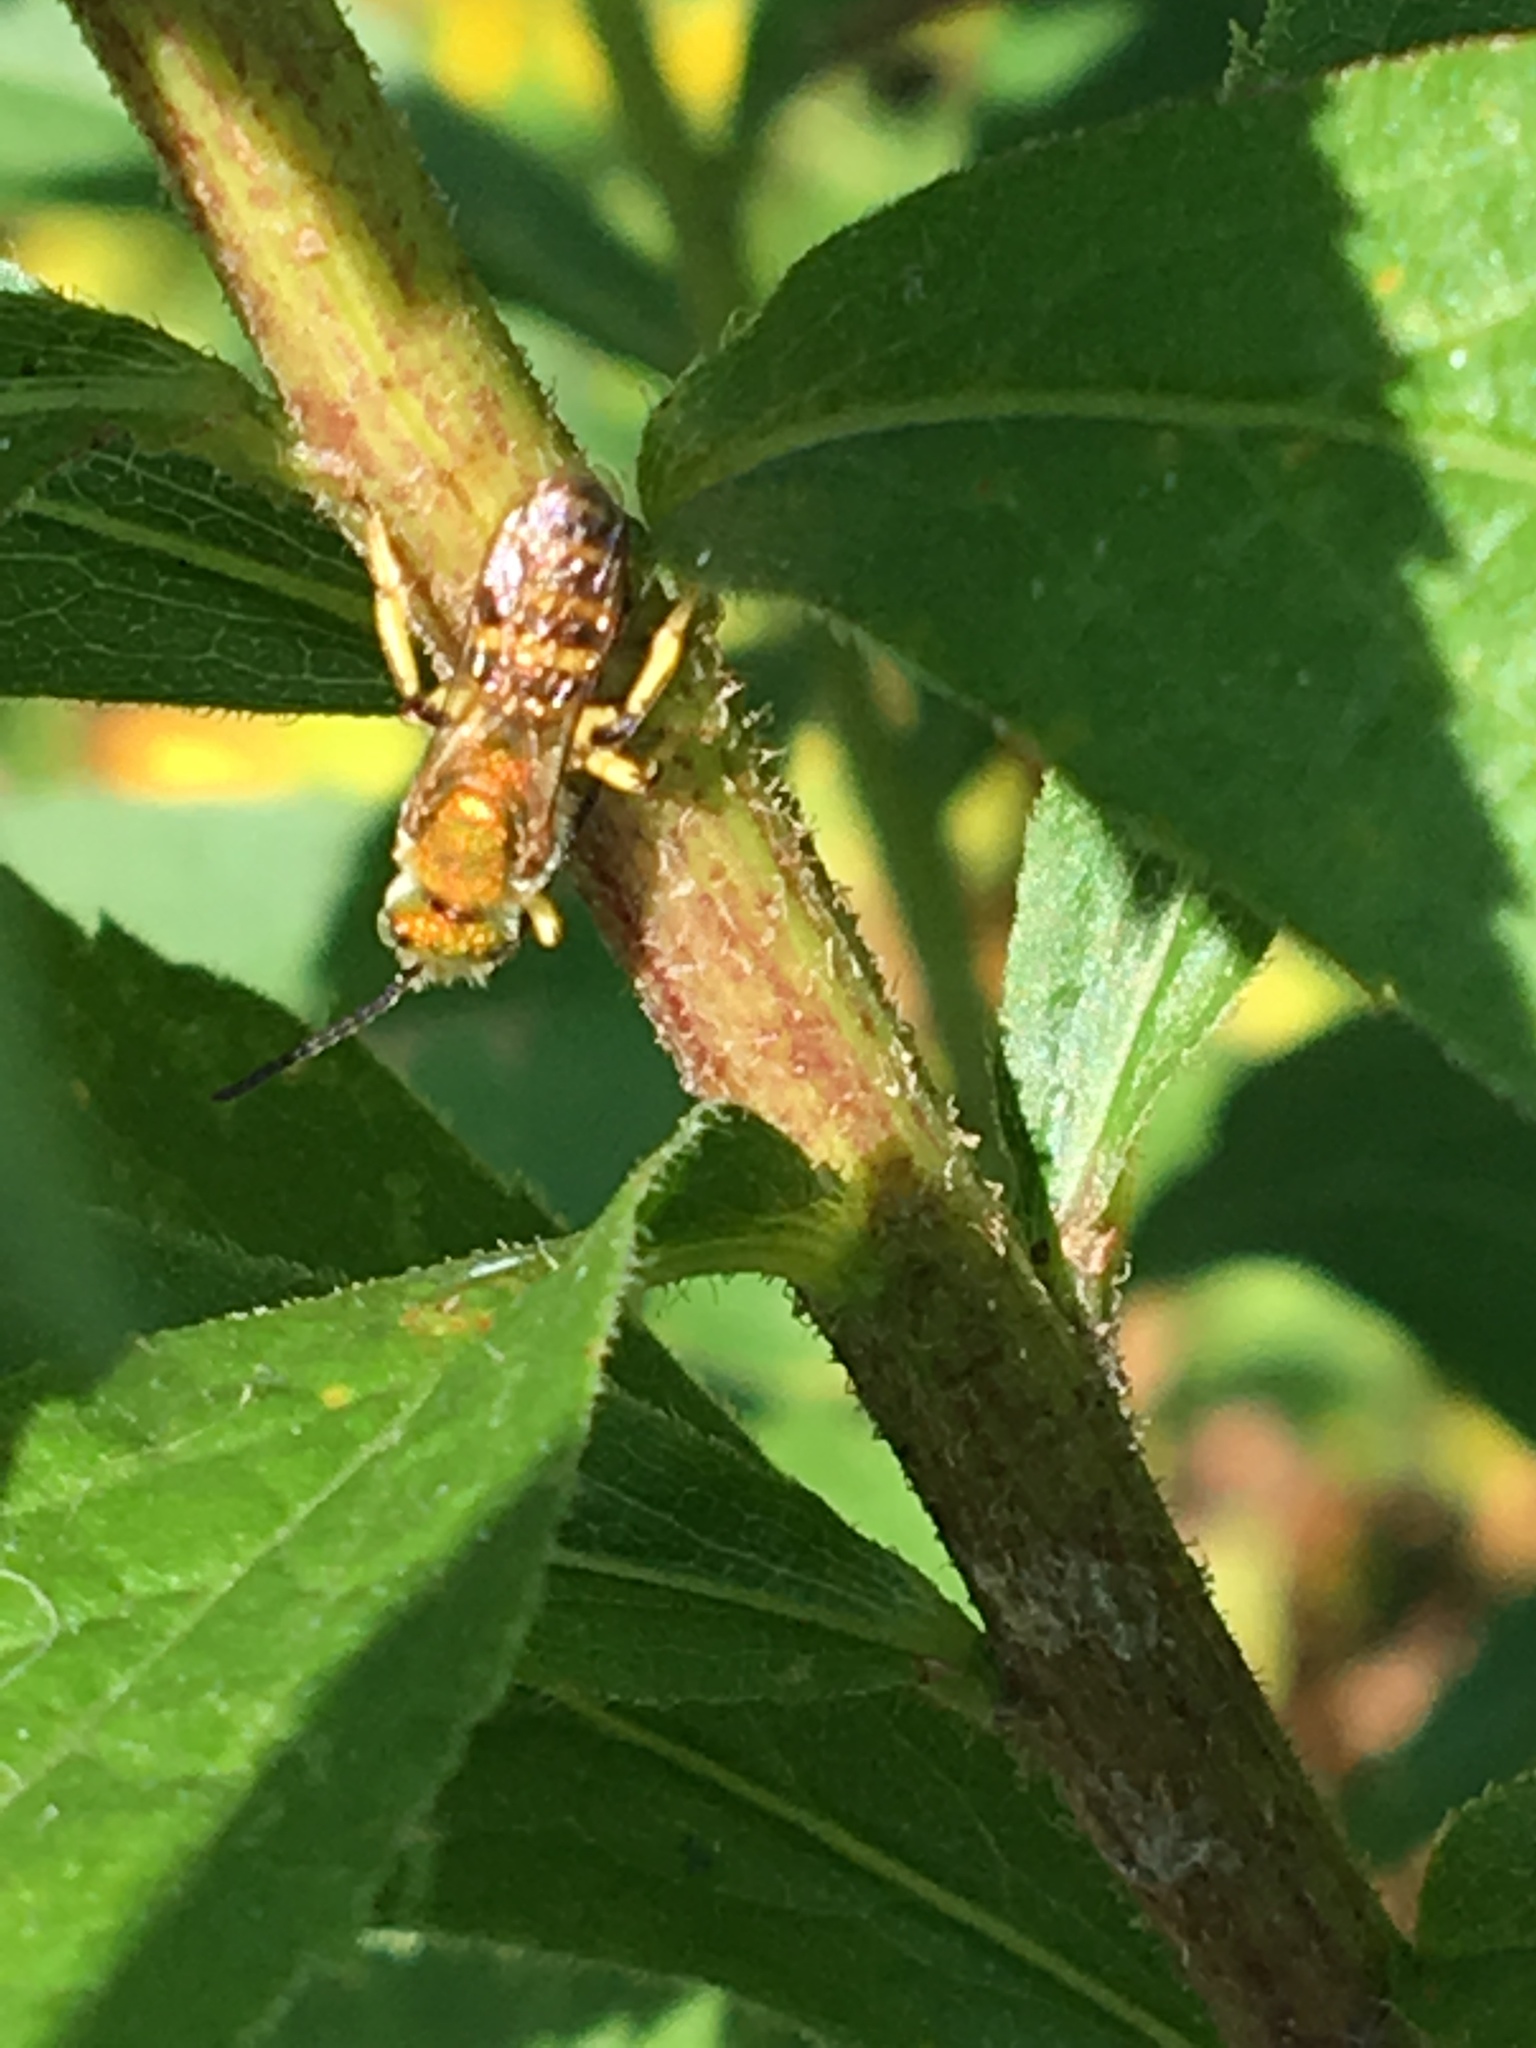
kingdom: Animalia
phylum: Arthropoda
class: Insecta
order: Hymenoptera
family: Halictidae
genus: Agapostemon
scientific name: Agapostemon virescens
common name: Bicolored striped sweat bee
